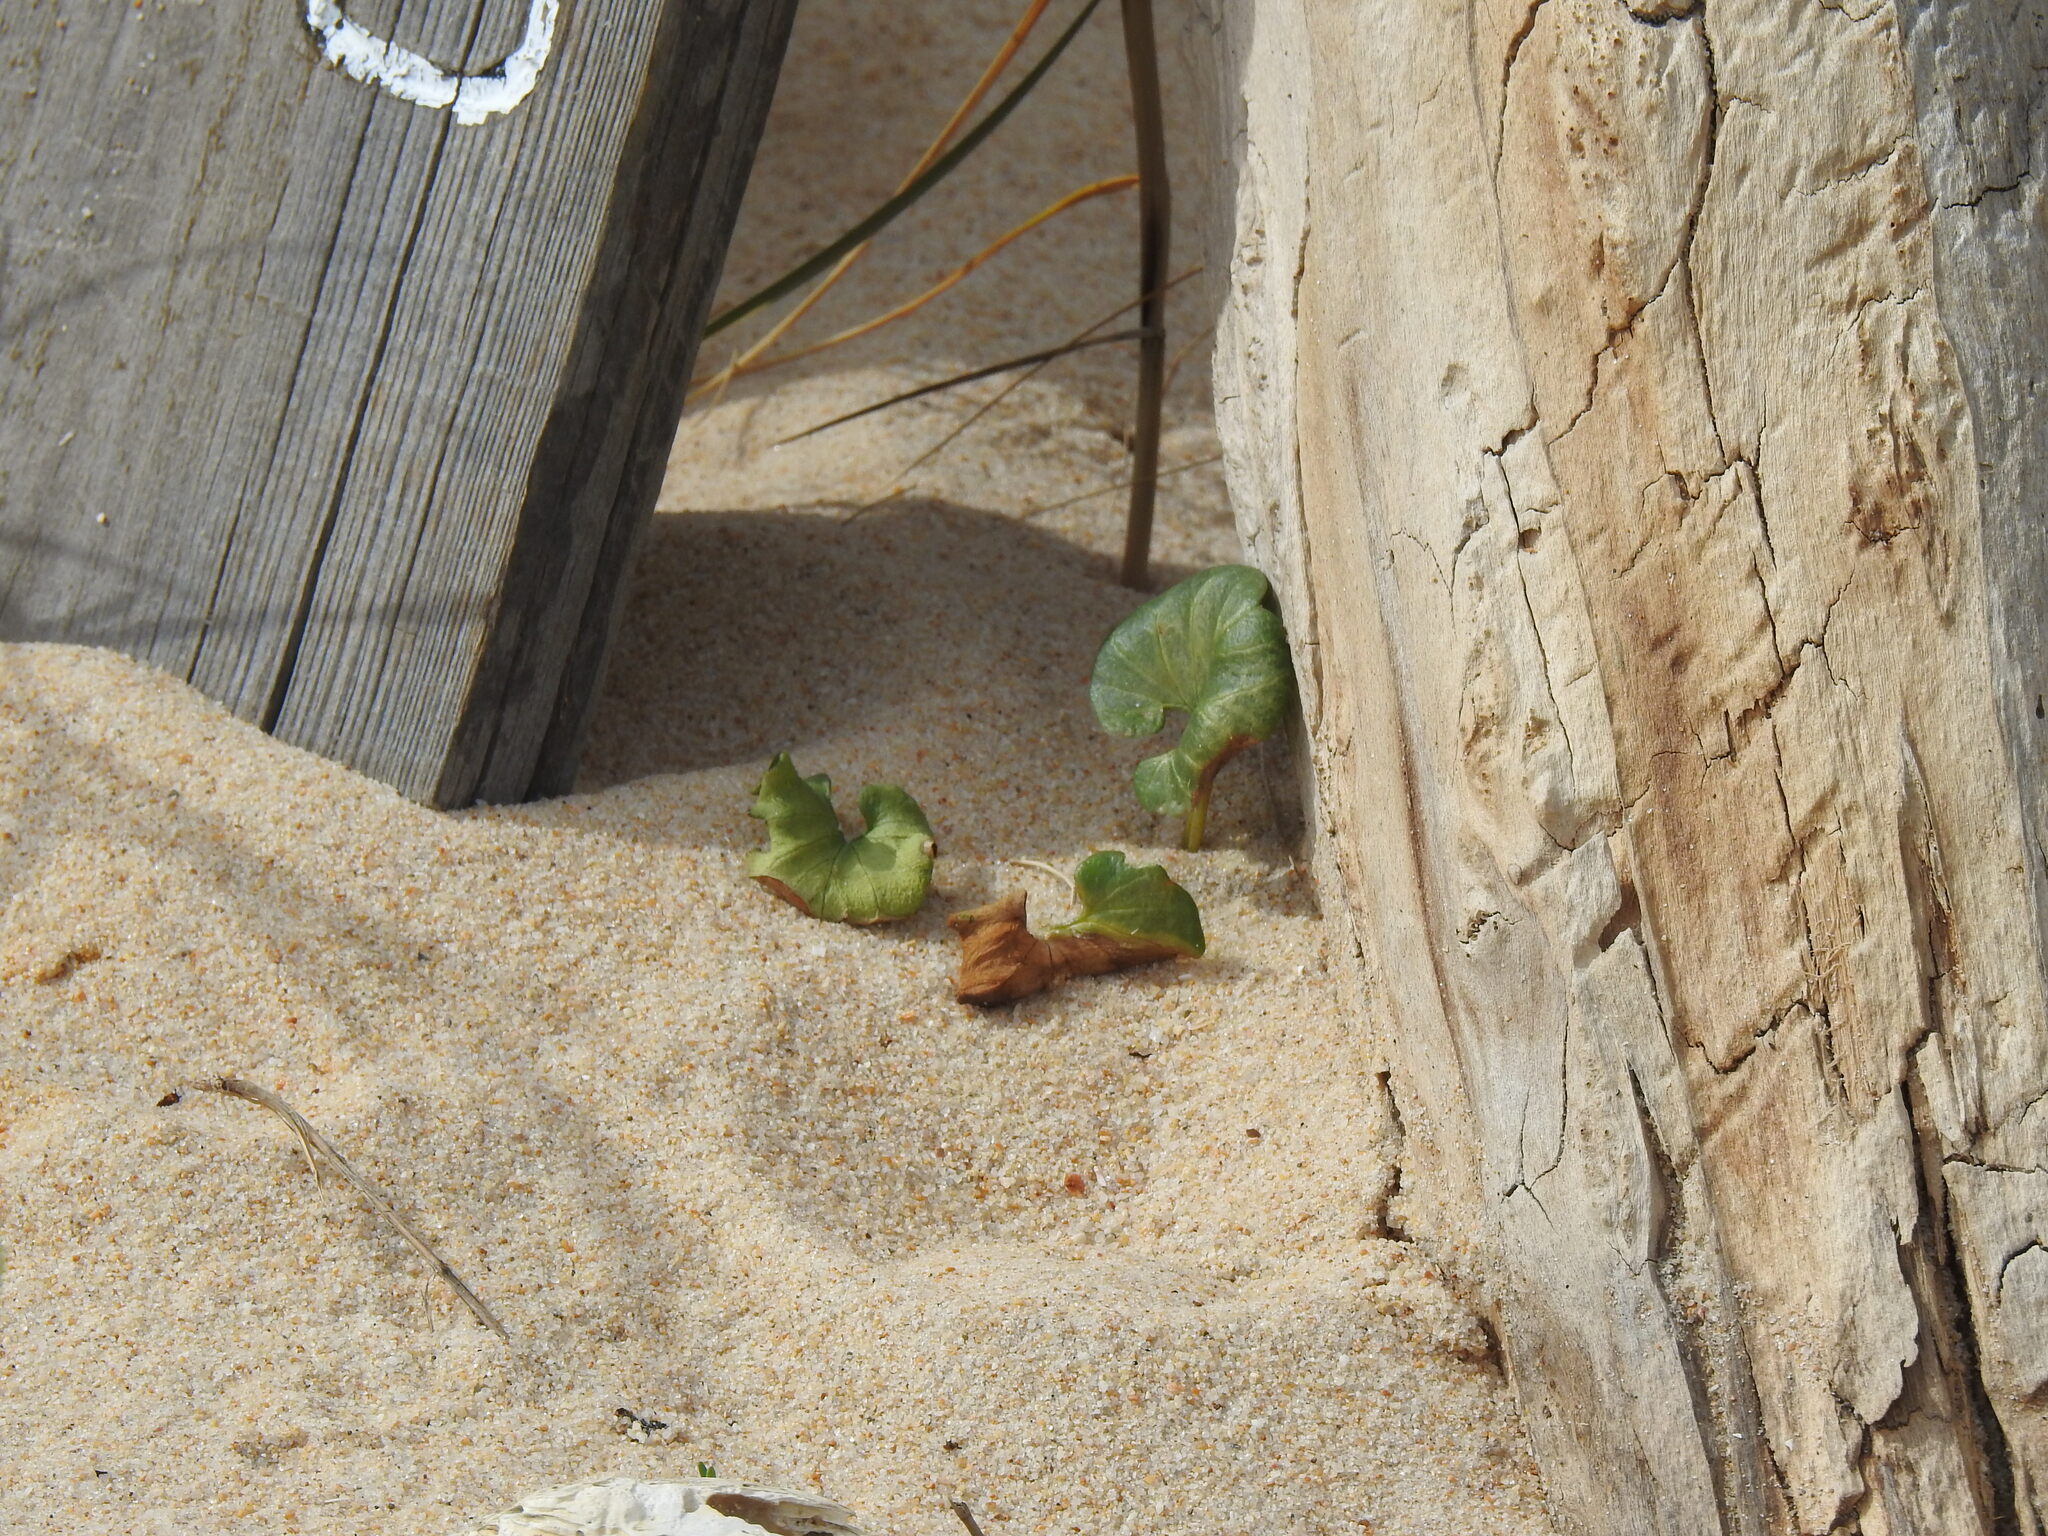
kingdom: Plantae
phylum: Tracheophyta
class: Magnoliopsida
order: Solanales
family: Convolvulaceae
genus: Calystegia
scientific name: Calystegia soldanella
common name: Sea bindweed
